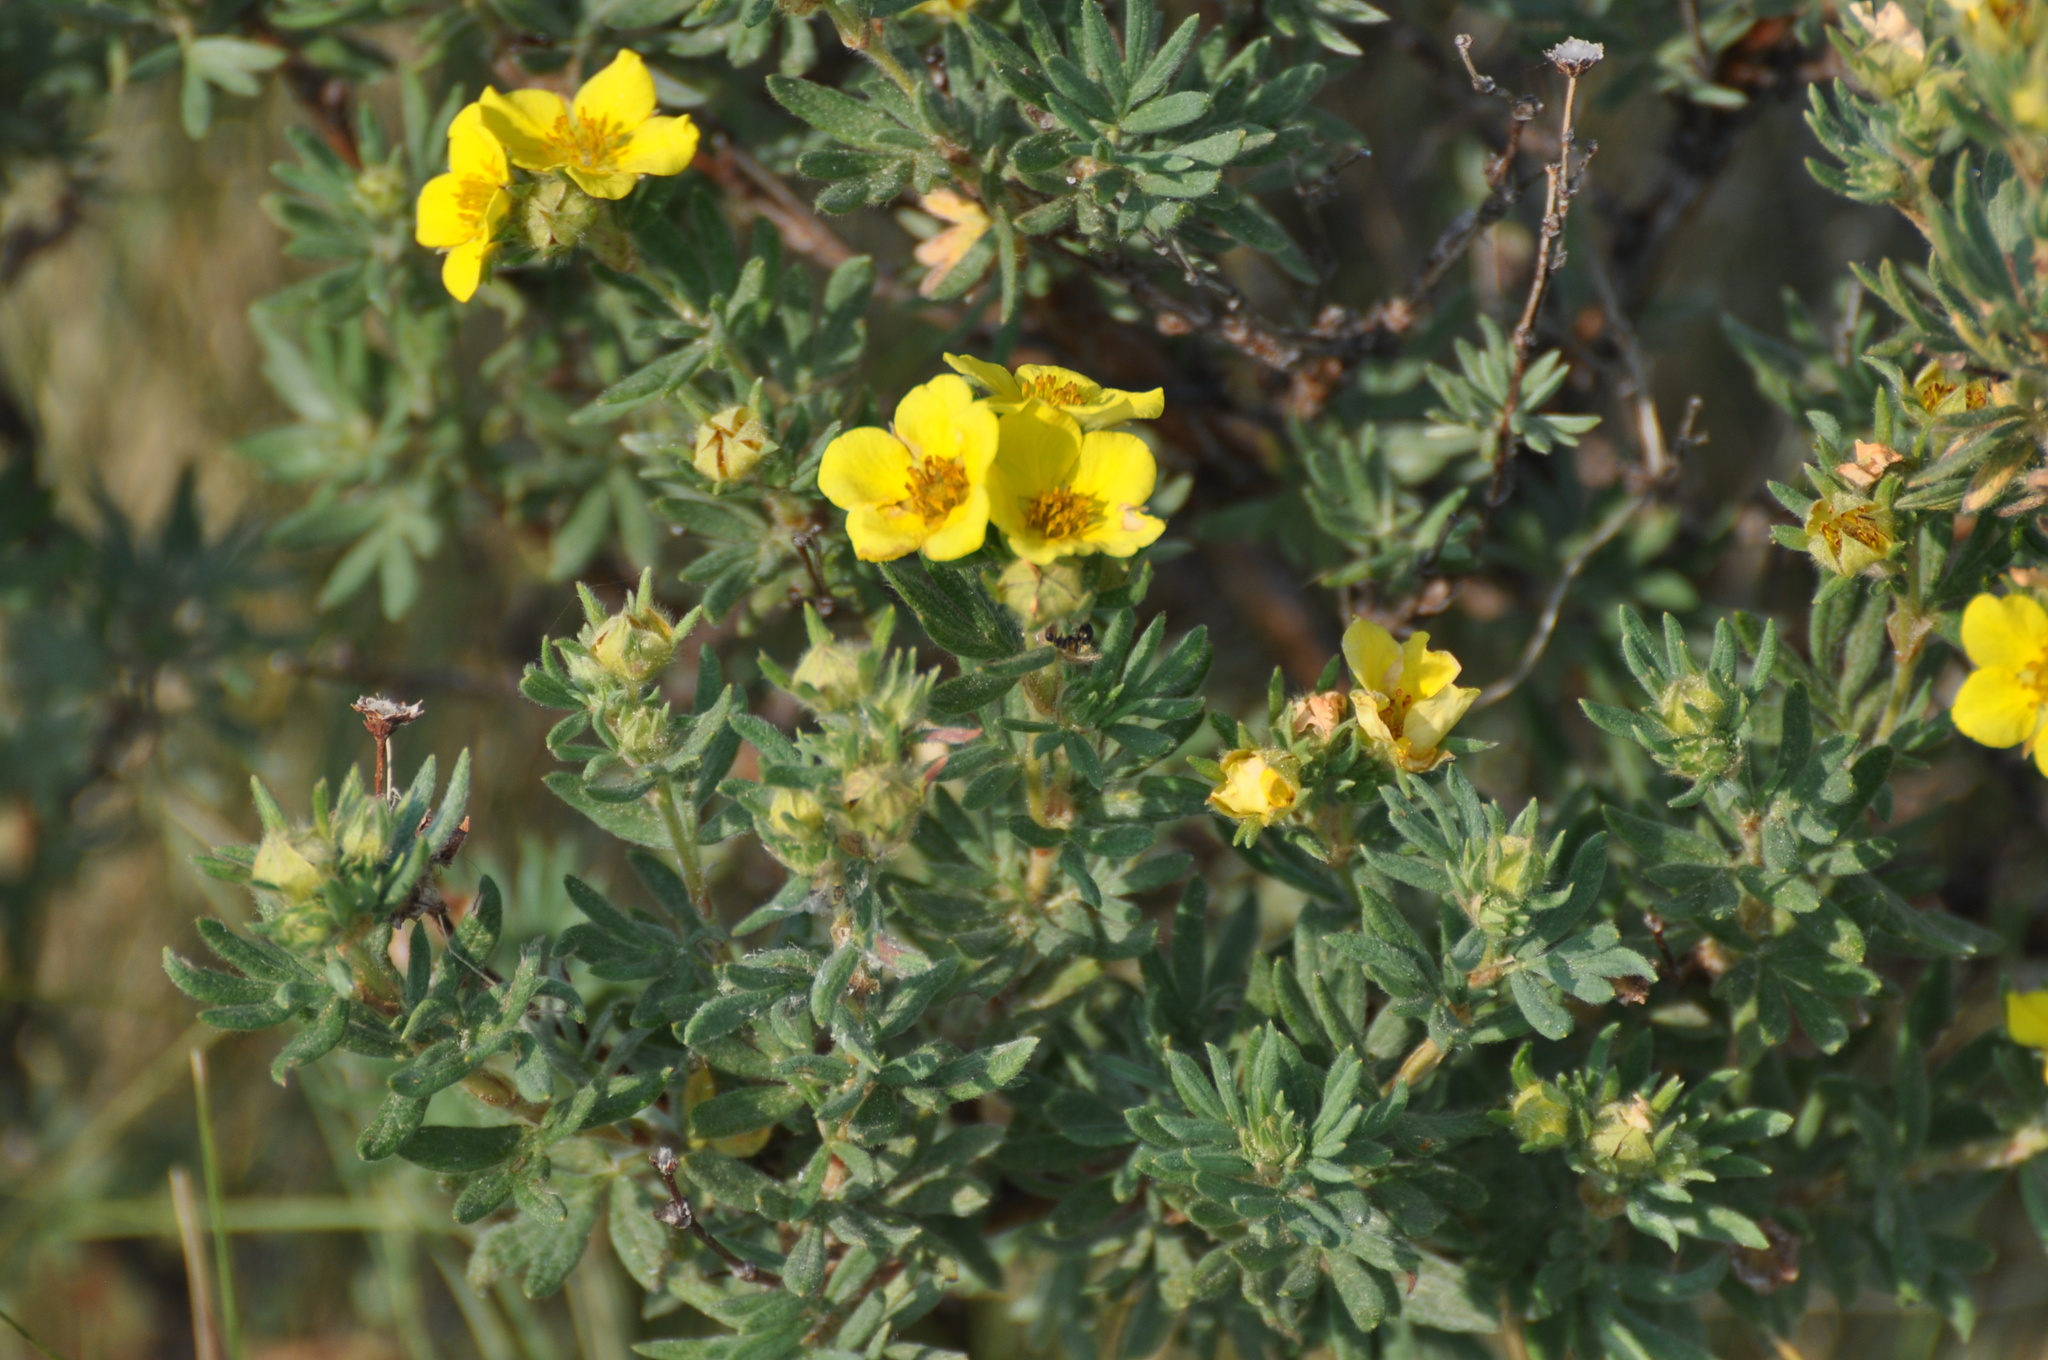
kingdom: Plantae
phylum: Tracheophyta
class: Magnoliopsida
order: Rosales
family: Rosaceae
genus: Dasiphora
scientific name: Dasiphora fruticosa
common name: Shrubby cinquefoil
